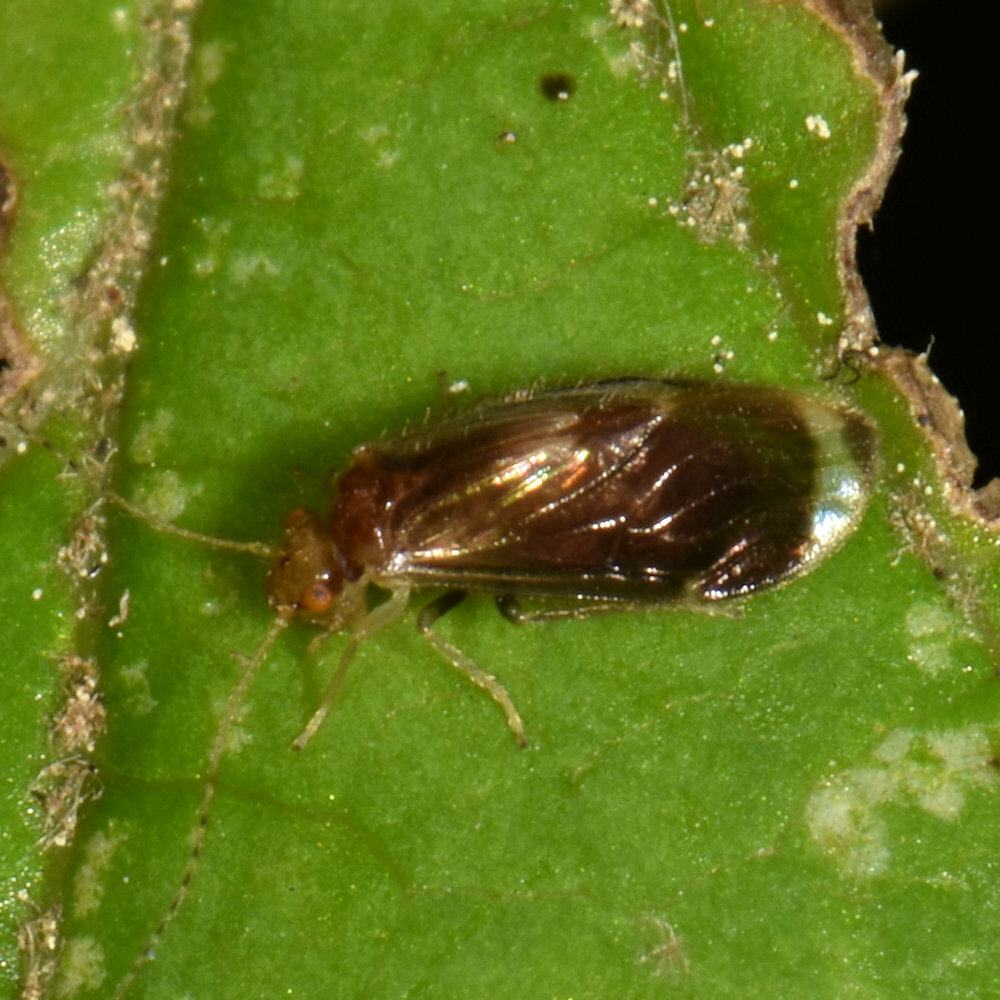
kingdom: Animalia
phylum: Arthropoda
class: Insecta
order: Psocodea
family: Amphipsocidae
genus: Polypsocus
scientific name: Polypsocus corruptus
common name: Corrupt barklouse
